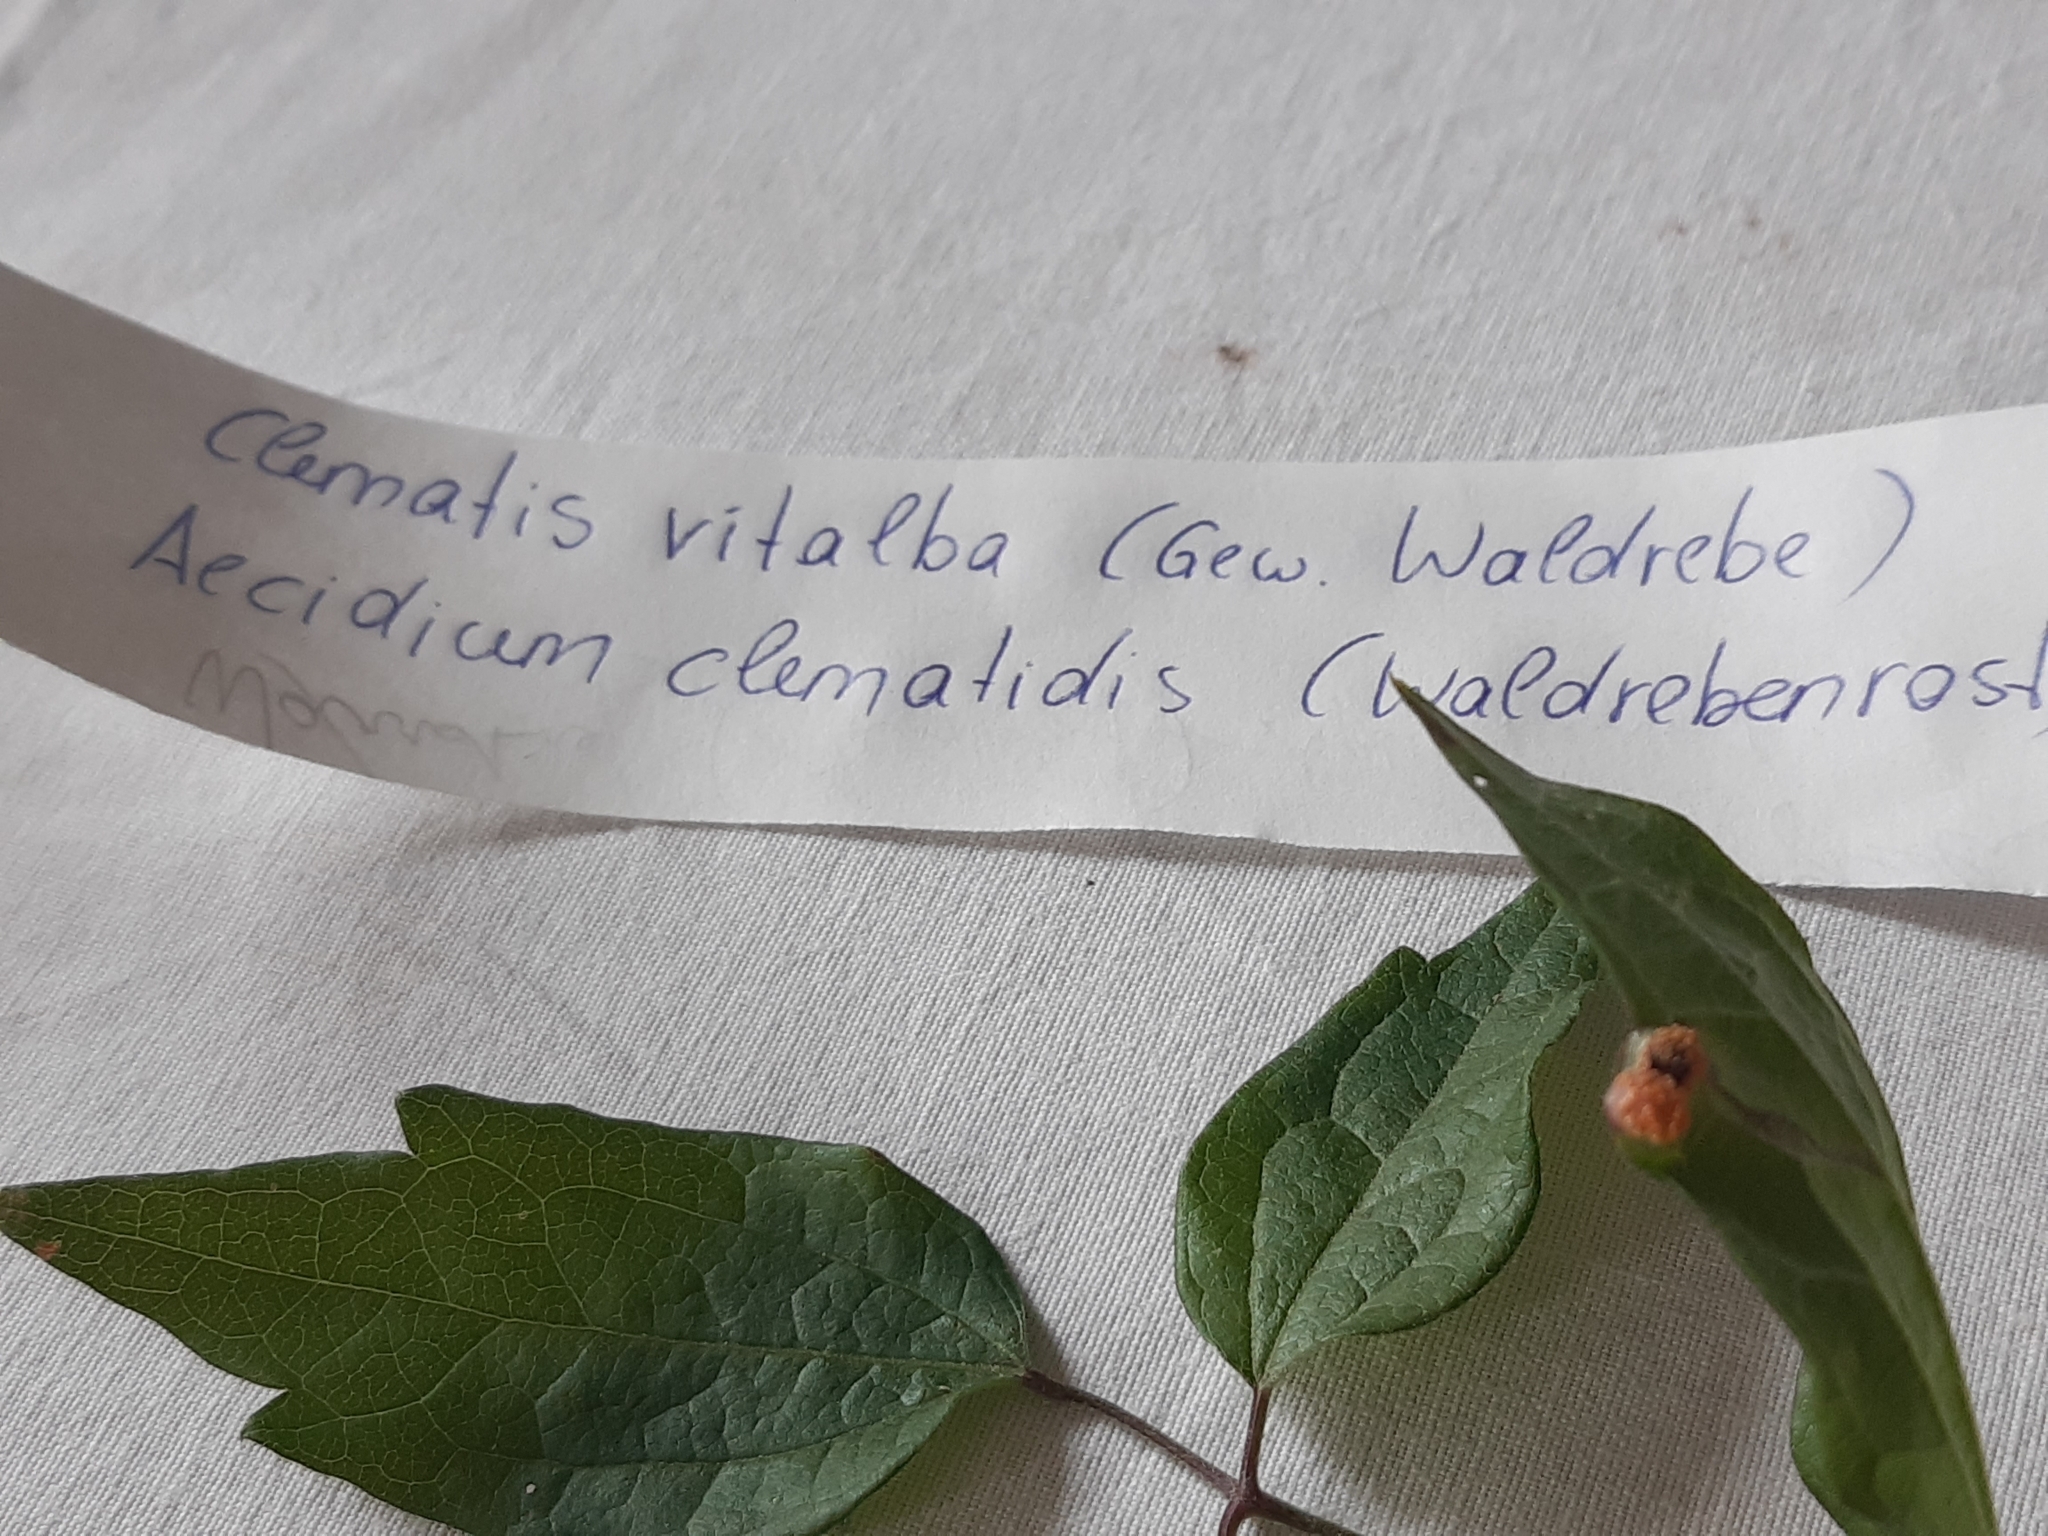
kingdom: Fungi
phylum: Basidiomycota
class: Pucciniomycetes
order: Pucciniales
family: Pucciniaceae
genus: Puccinia
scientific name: Puccinia recondita
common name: Brown rust of wheat
